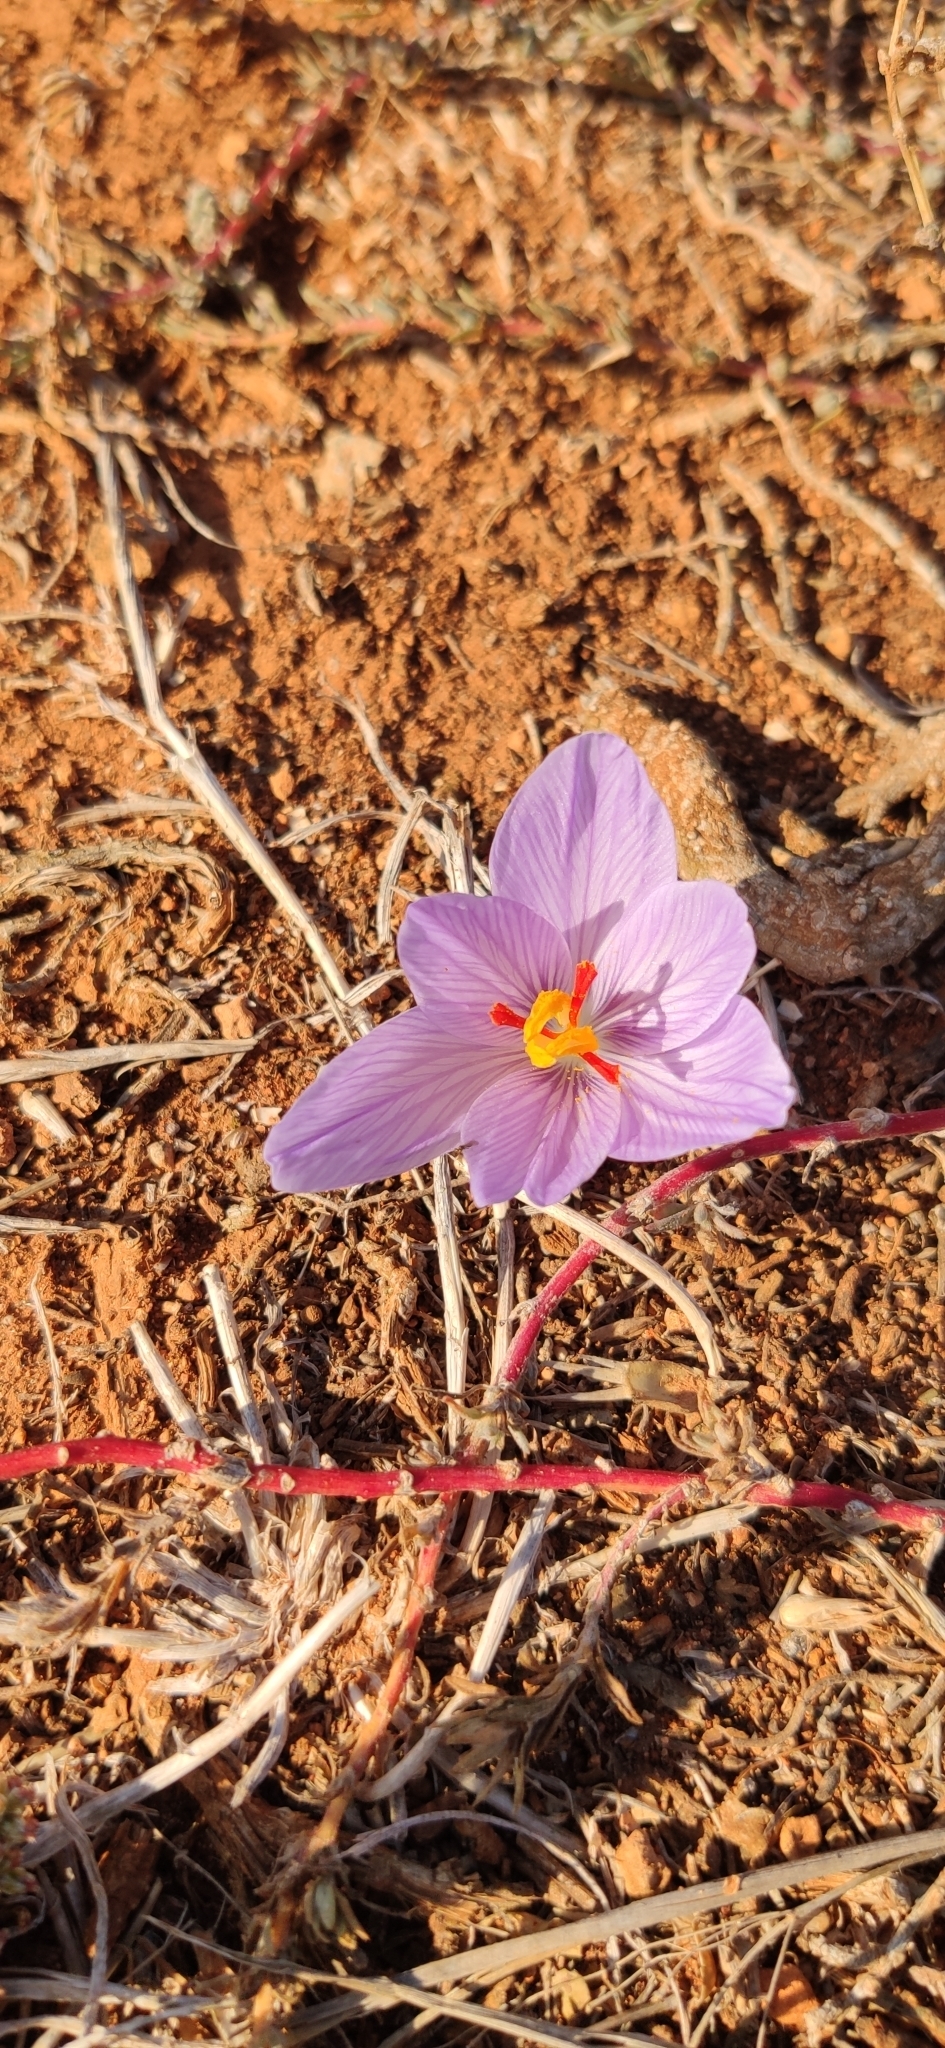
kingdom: Plantae
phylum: Tracheophyta
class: Liliopsida
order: Asparagales
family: Iridaceae
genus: Crocus
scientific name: Crocus pallasii
